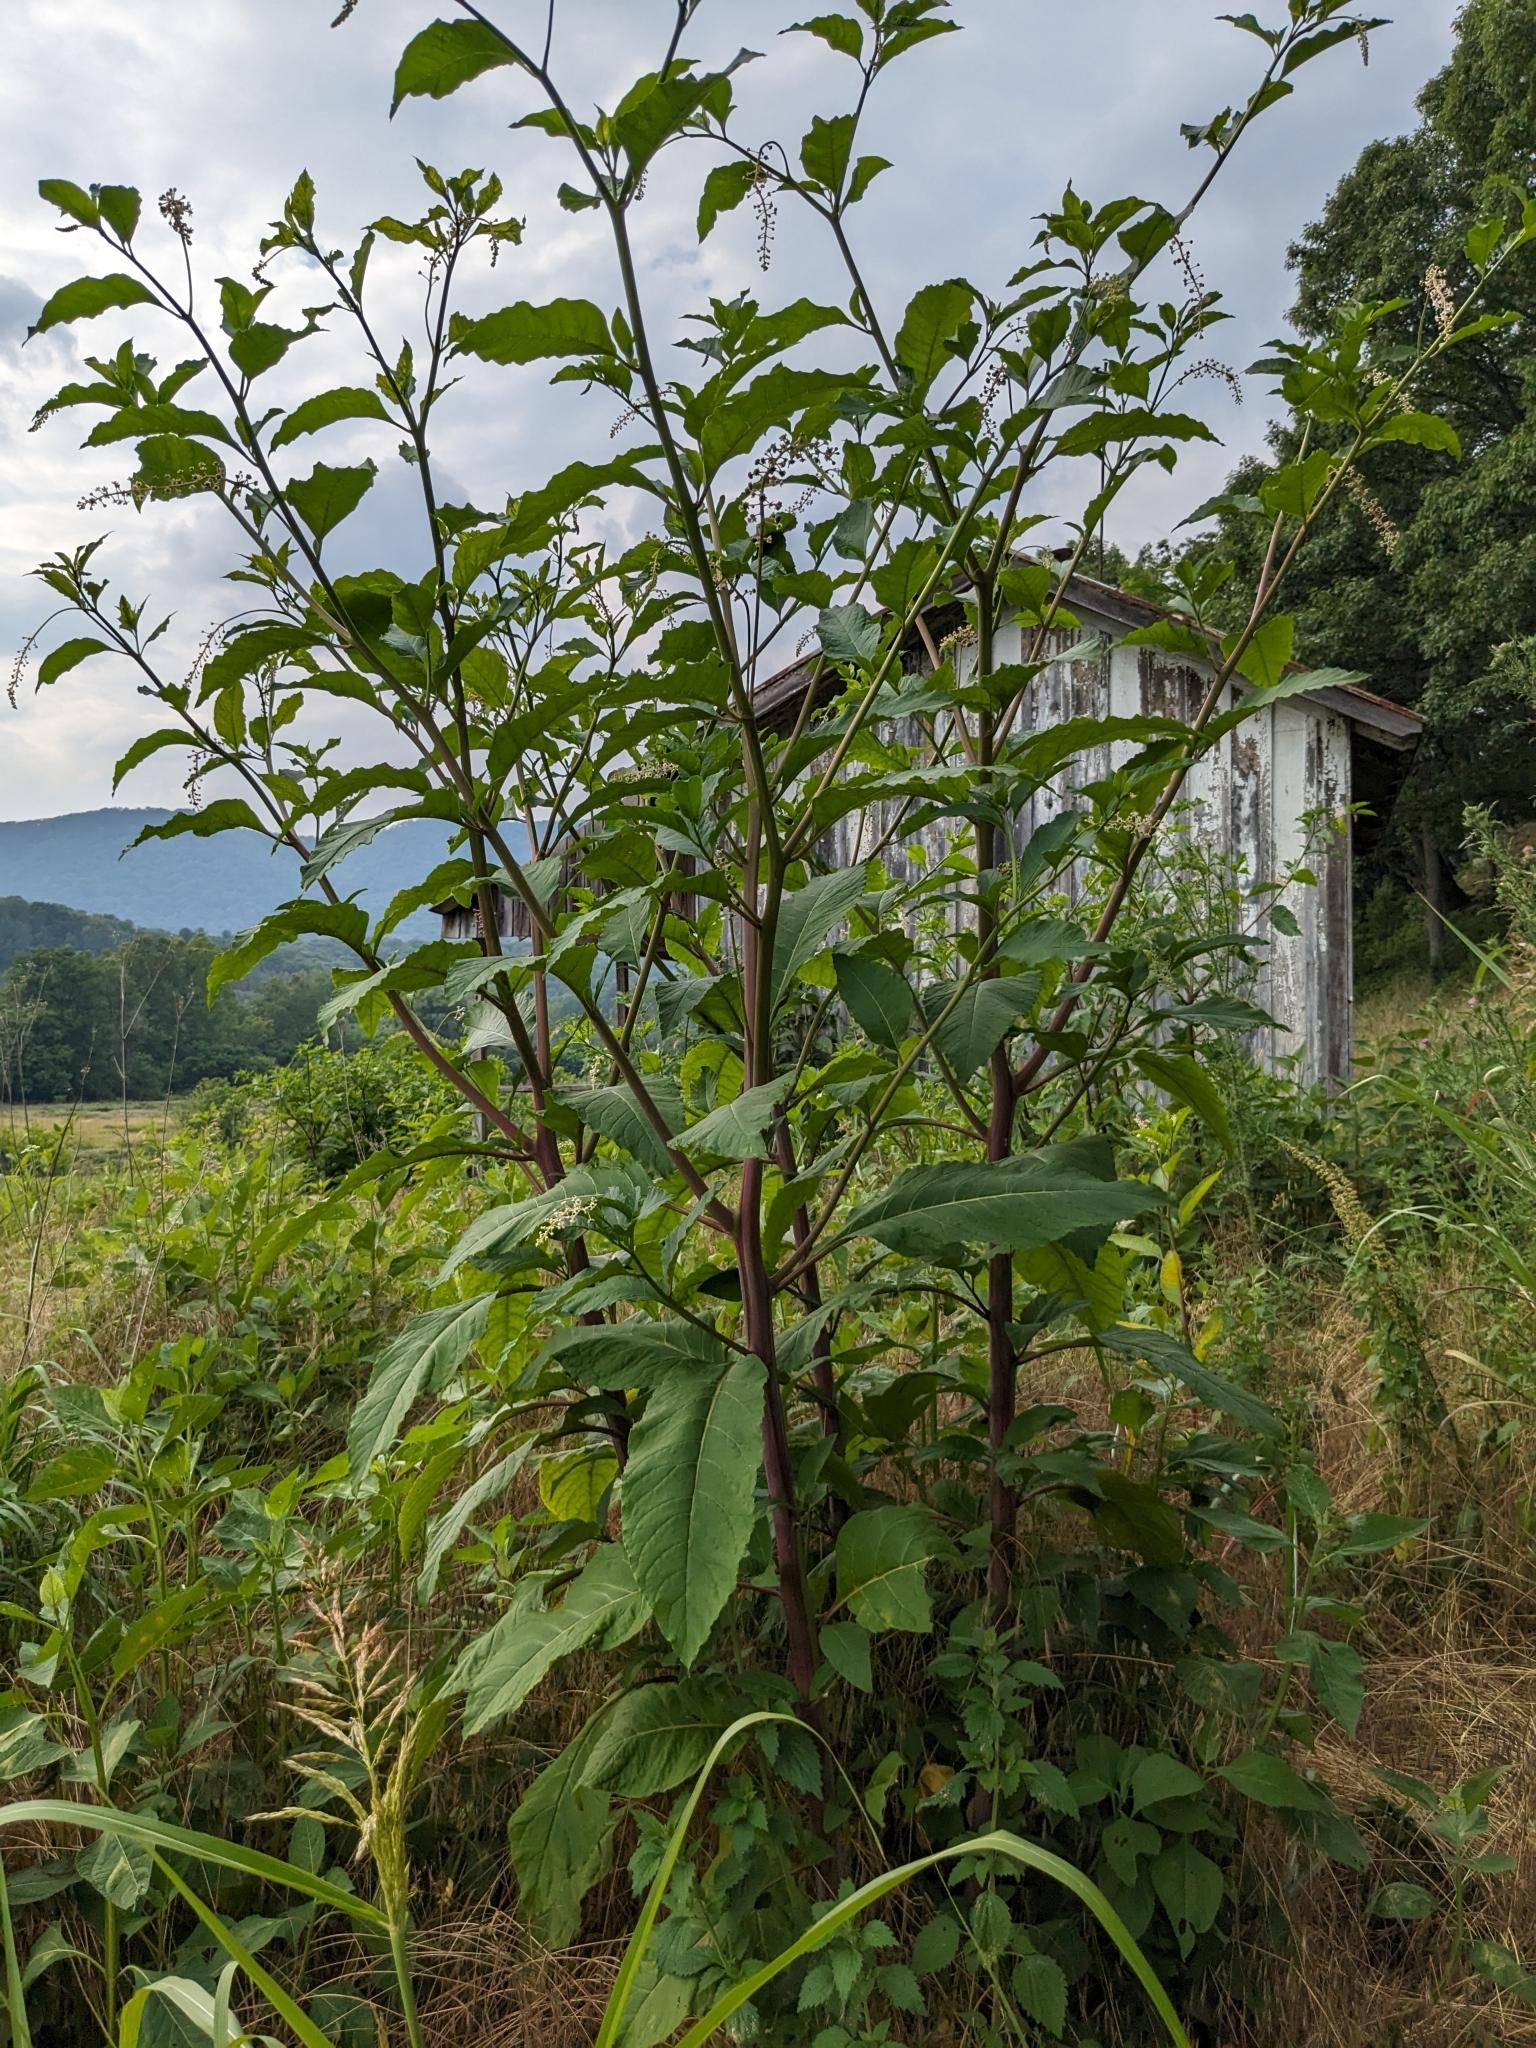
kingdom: Plantae
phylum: Tracheophyta
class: Magnoliopsida
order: Caryophyllales
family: Phytolaccaceae
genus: Phytolacca
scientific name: Phytolacca americana
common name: American pokeweed
